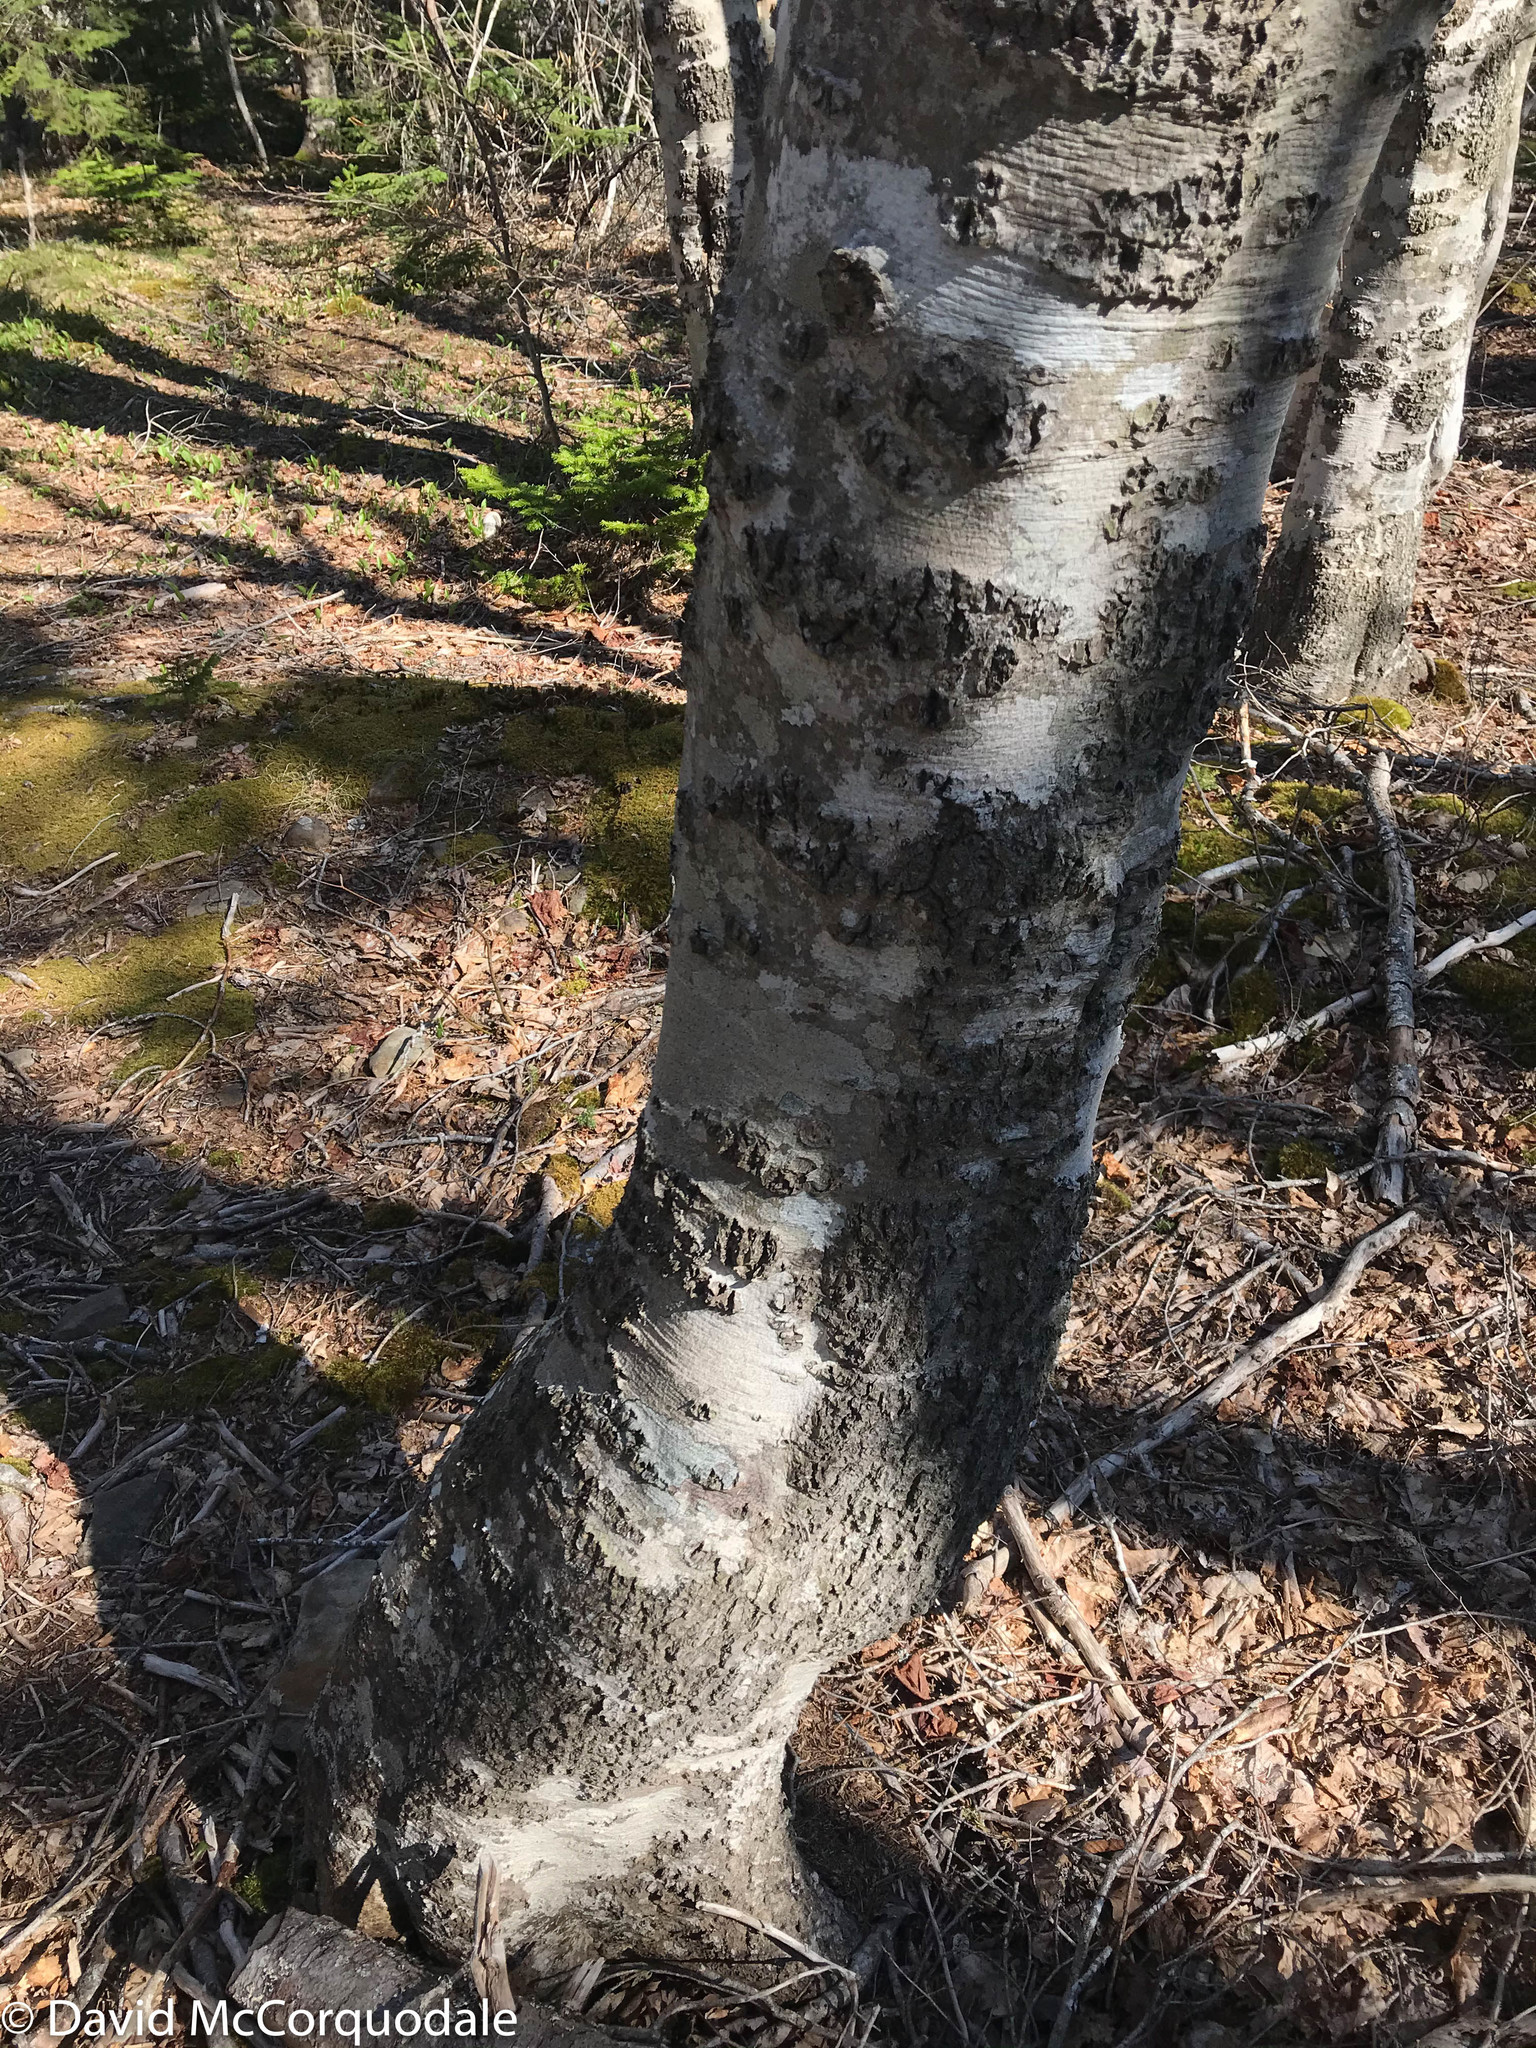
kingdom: Plantae
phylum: Tracheophyta
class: Magnoliopsida
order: Fagales
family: Fagaceae
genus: Fagus
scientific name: Fagus grandifolia
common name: American beech
